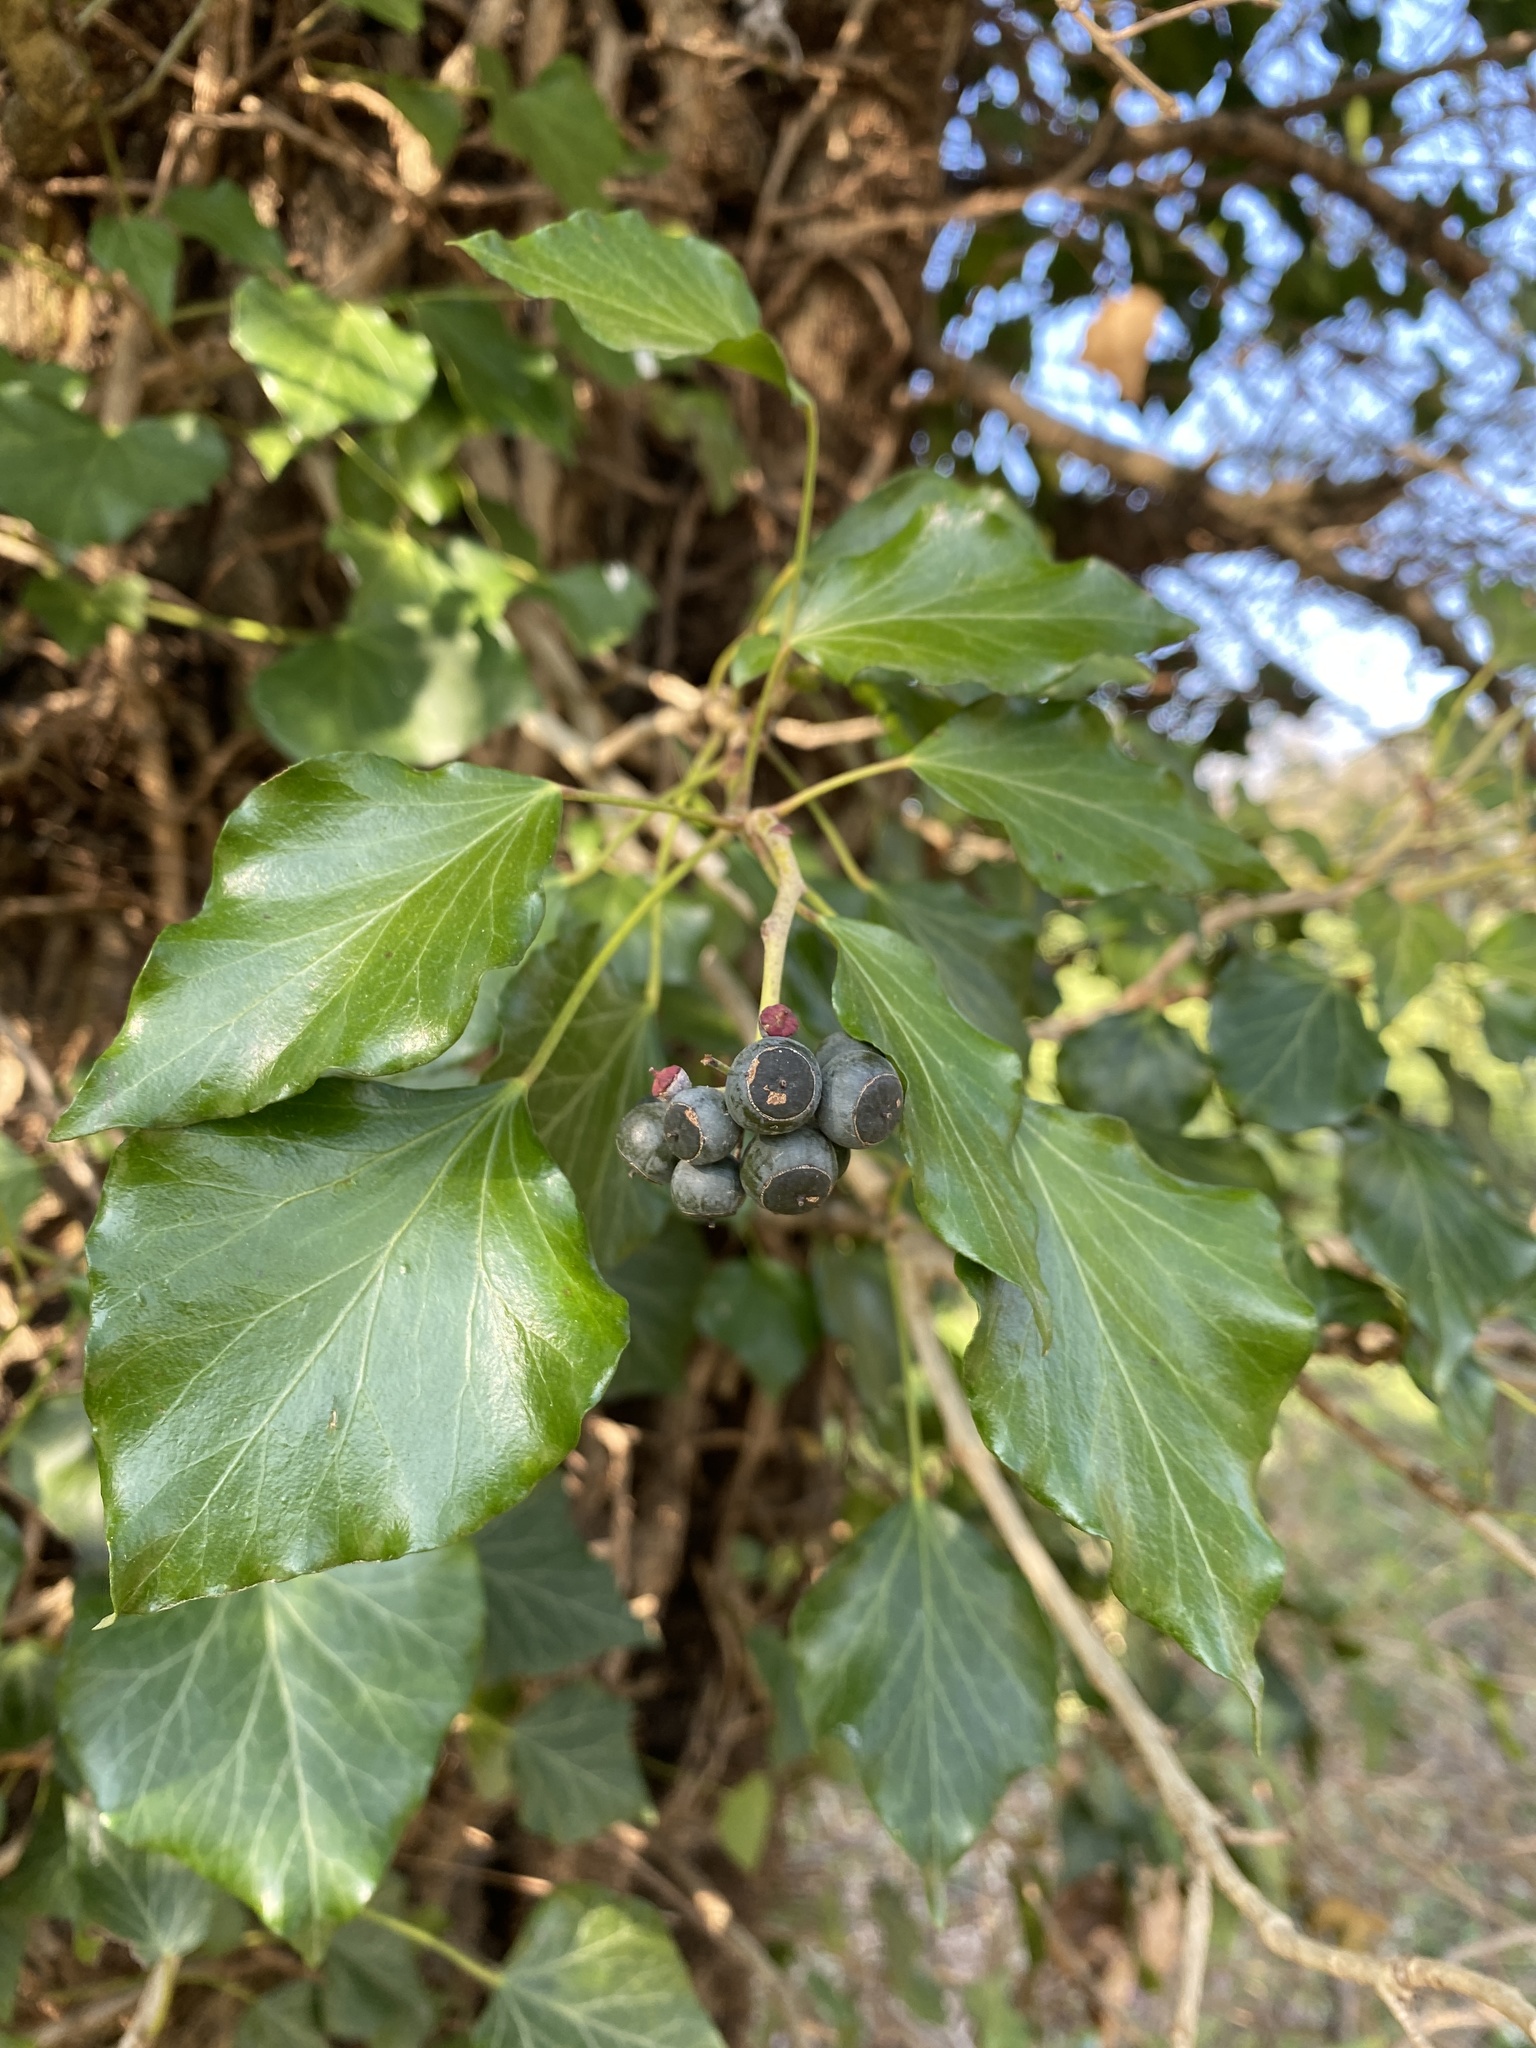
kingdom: Plantae
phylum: Tracheophyta
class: Magnoliopsida
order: Apiales
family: Araliaceae
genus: Hedera
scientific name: Hedera helix
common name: Ivy
